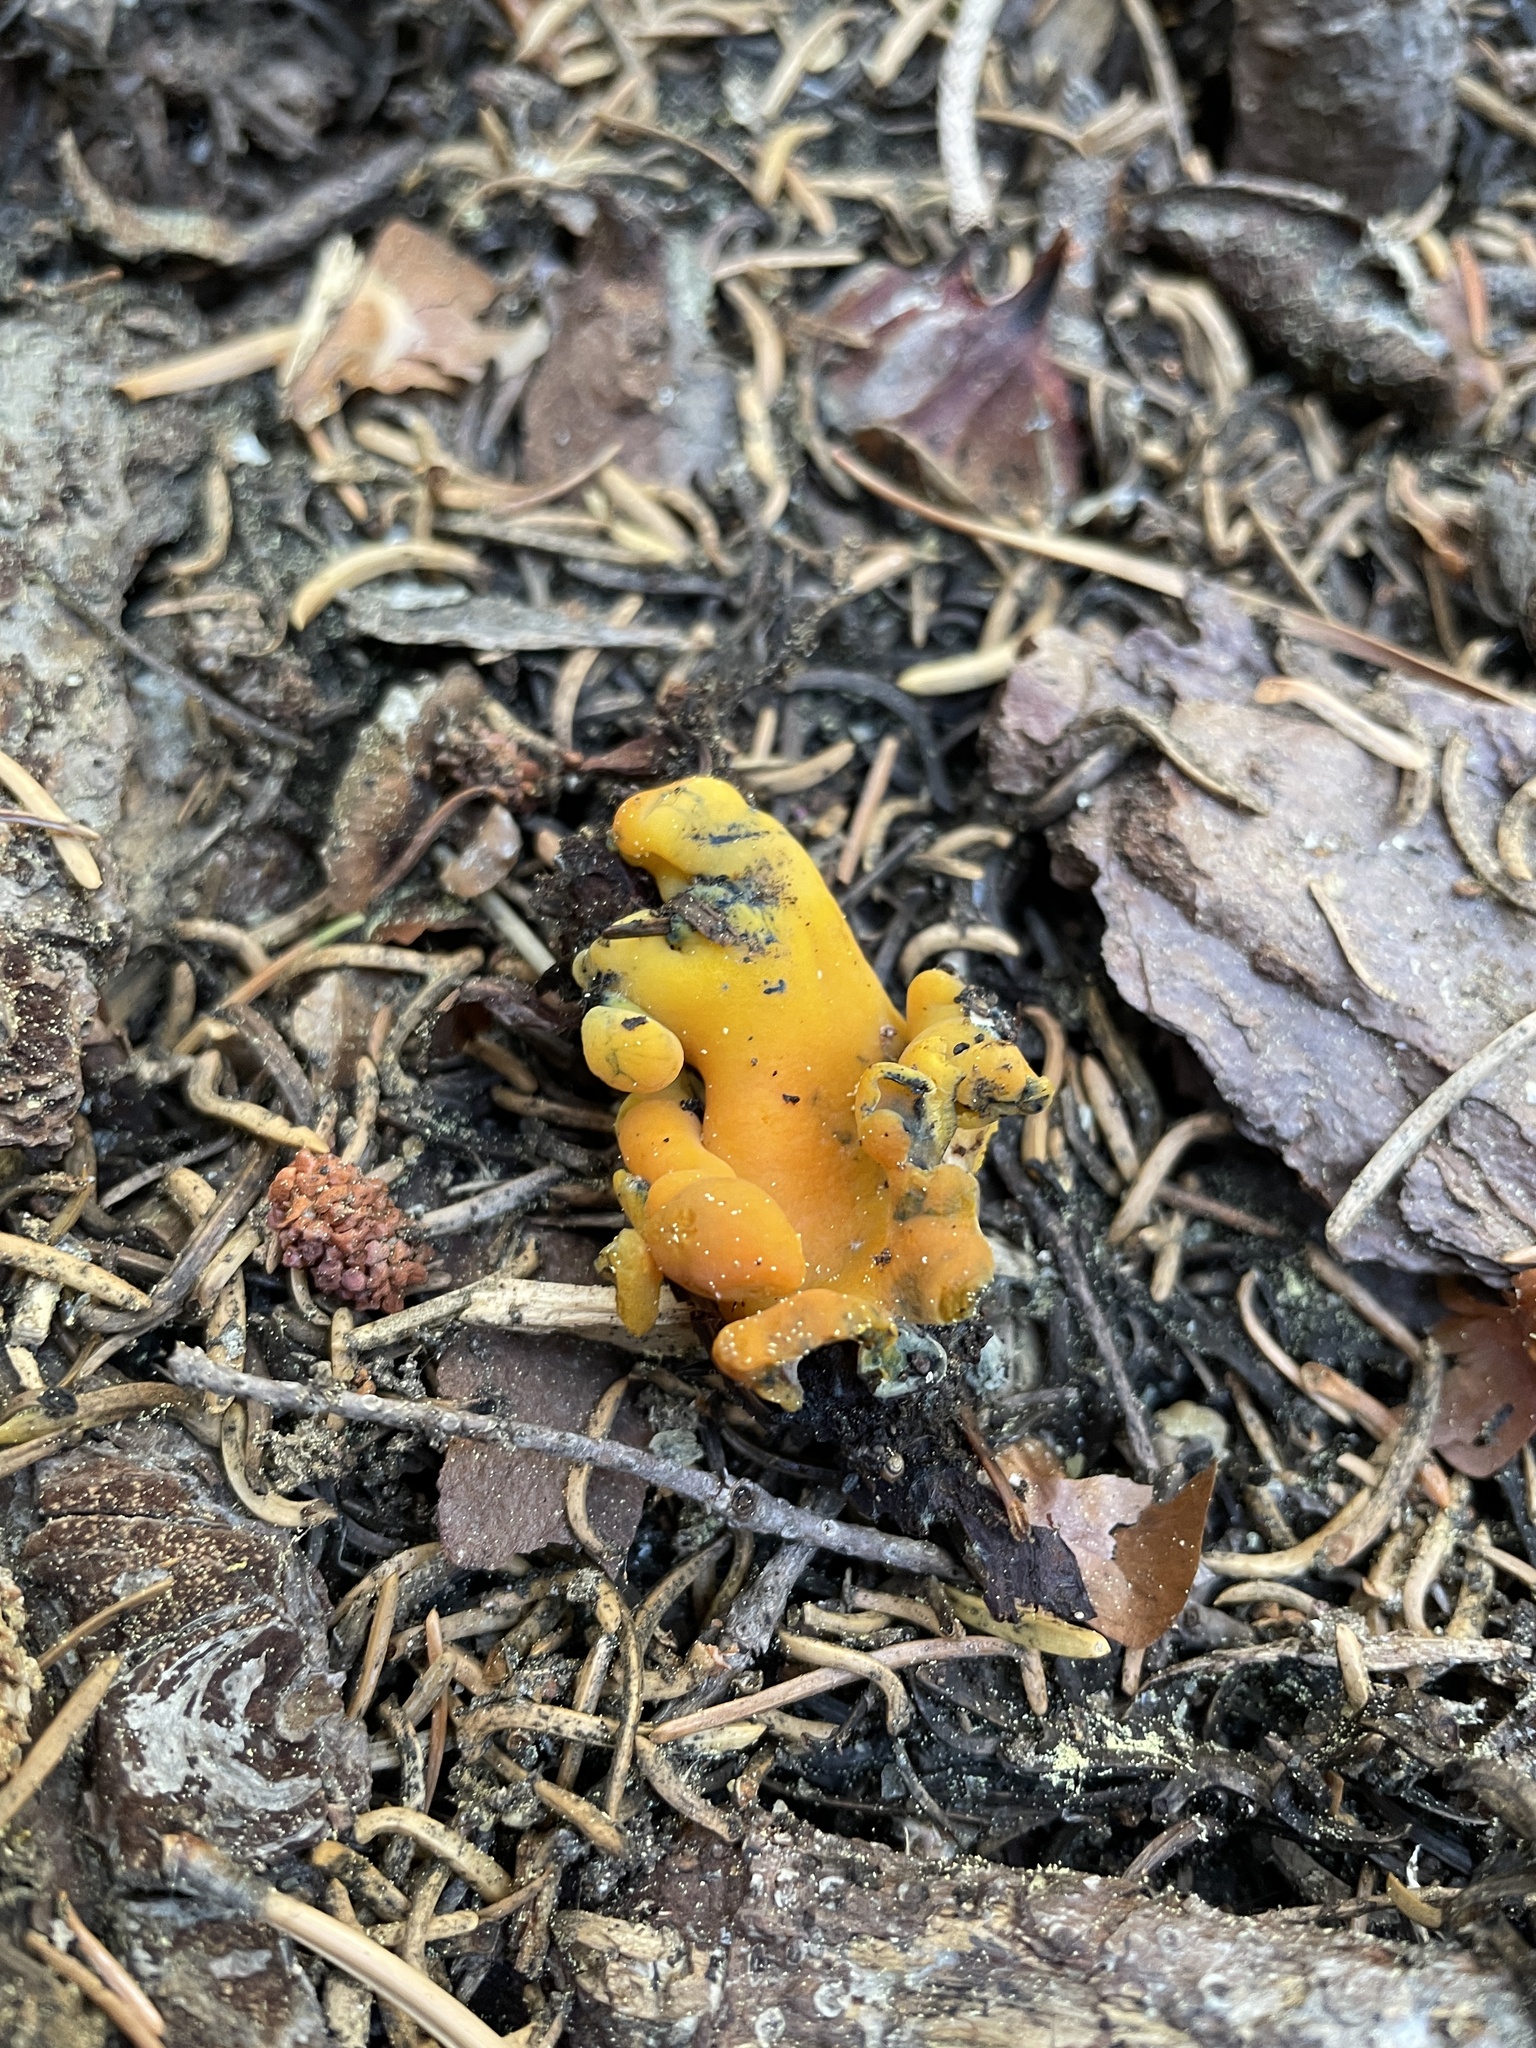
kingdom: Fungi
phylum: Ascomycota
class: Pezizomycetes
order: Pezizales
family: Caloscyphaceae
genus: Caloscypha
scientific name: Caloscypha fulgens
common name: Golden cup
